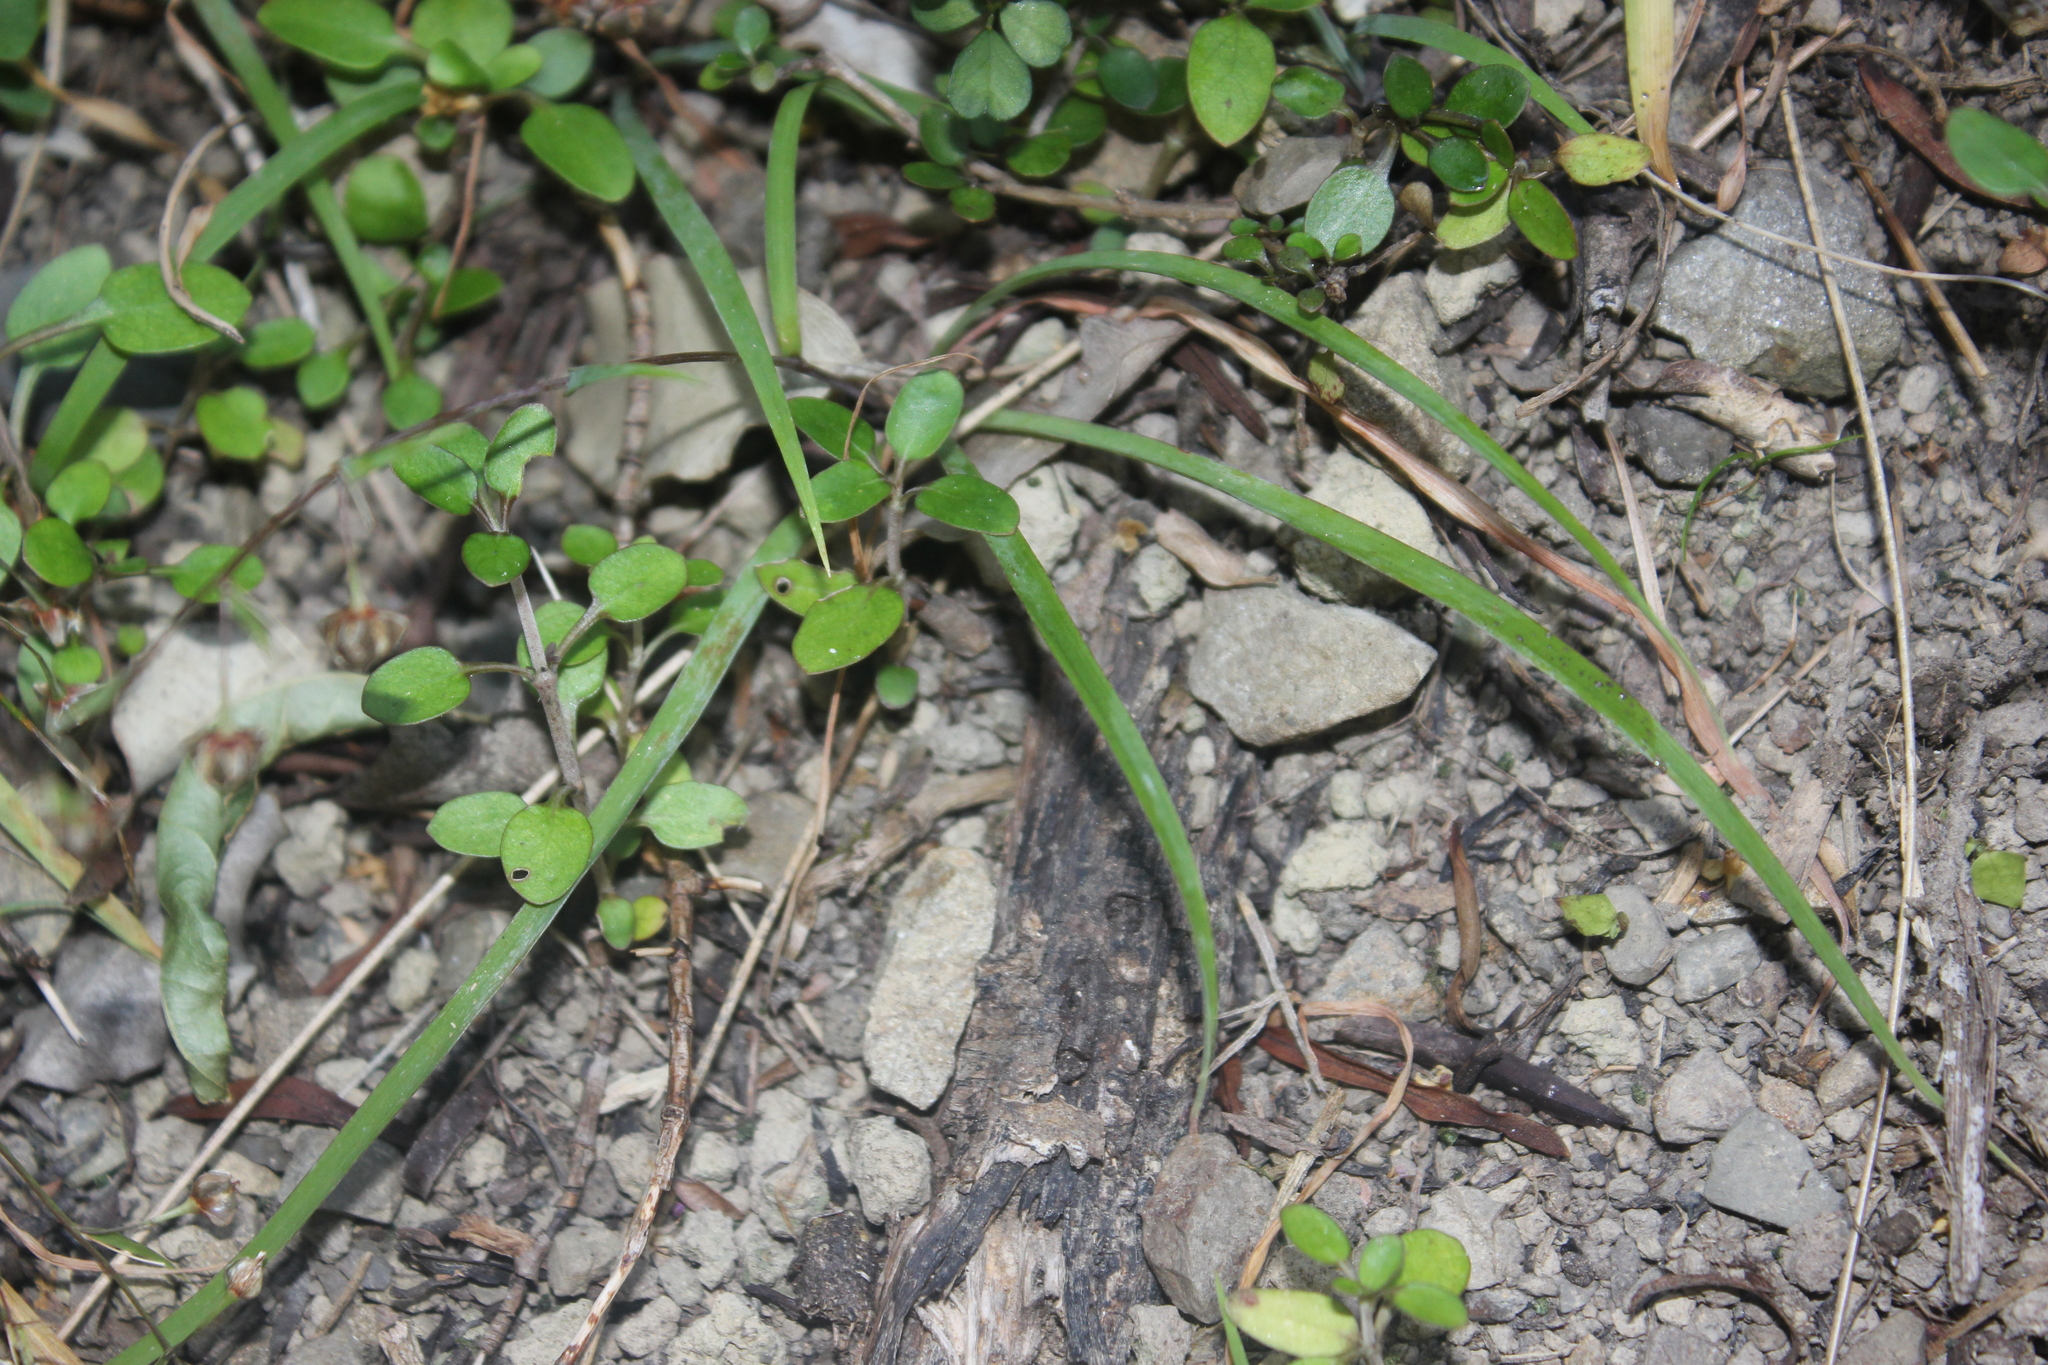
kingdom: Plantae
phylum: Tracheophyta
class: Liliopsida
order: Asparagales
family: Asparagaceae
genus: Arthropodium
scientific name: Arthropodium candidum
